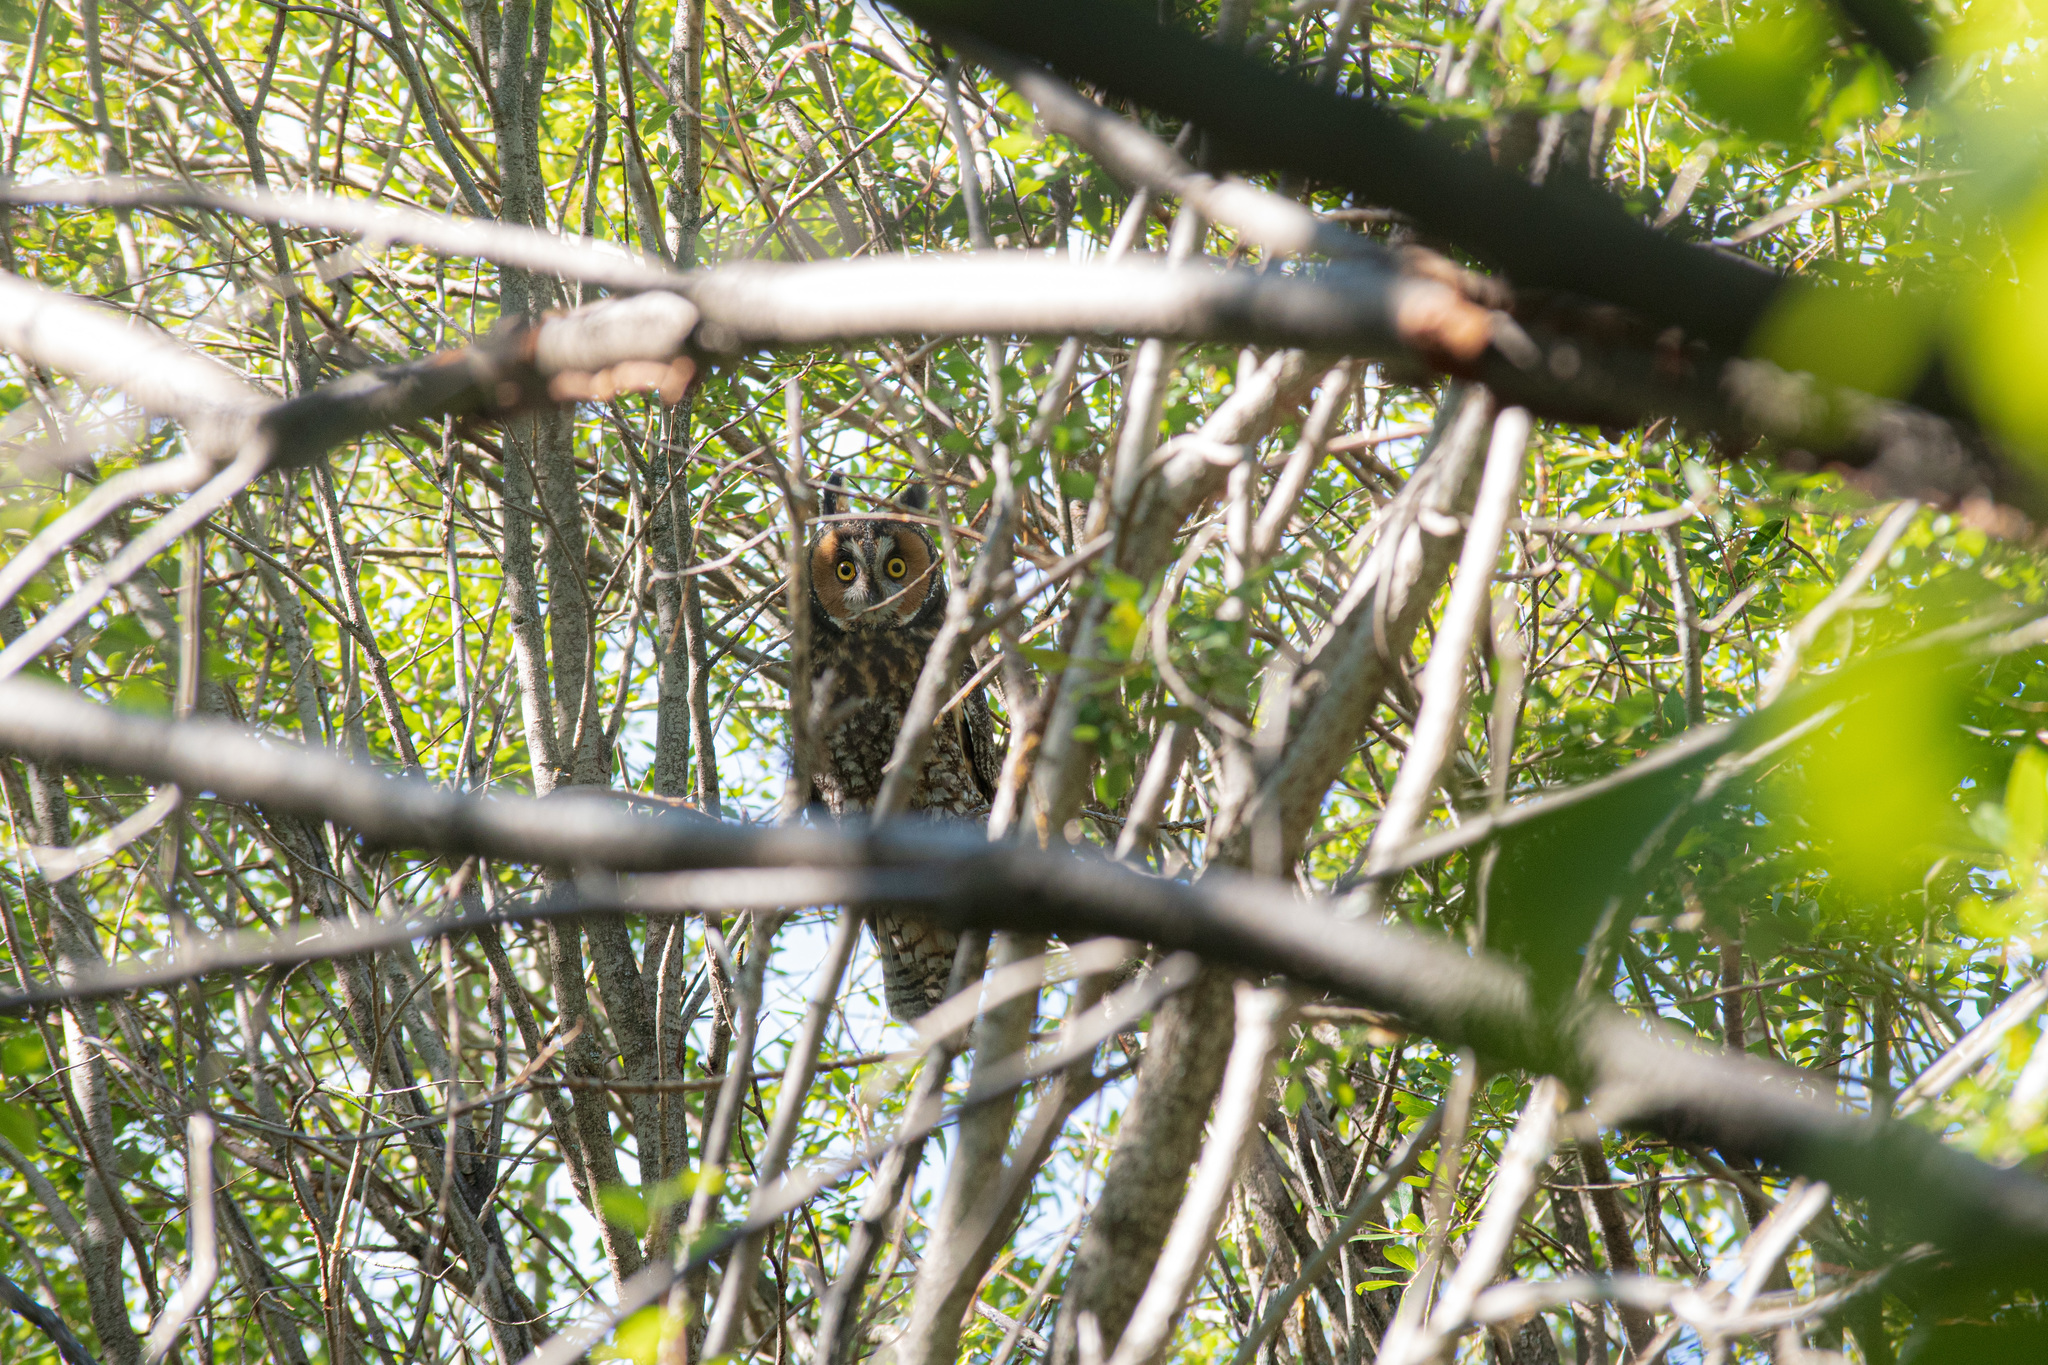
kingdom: Animalia
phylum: Chordata
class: Aves
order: Strigiformes
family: Strigidae
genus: Asio
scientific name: Asio otus
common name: Long-eared owl
